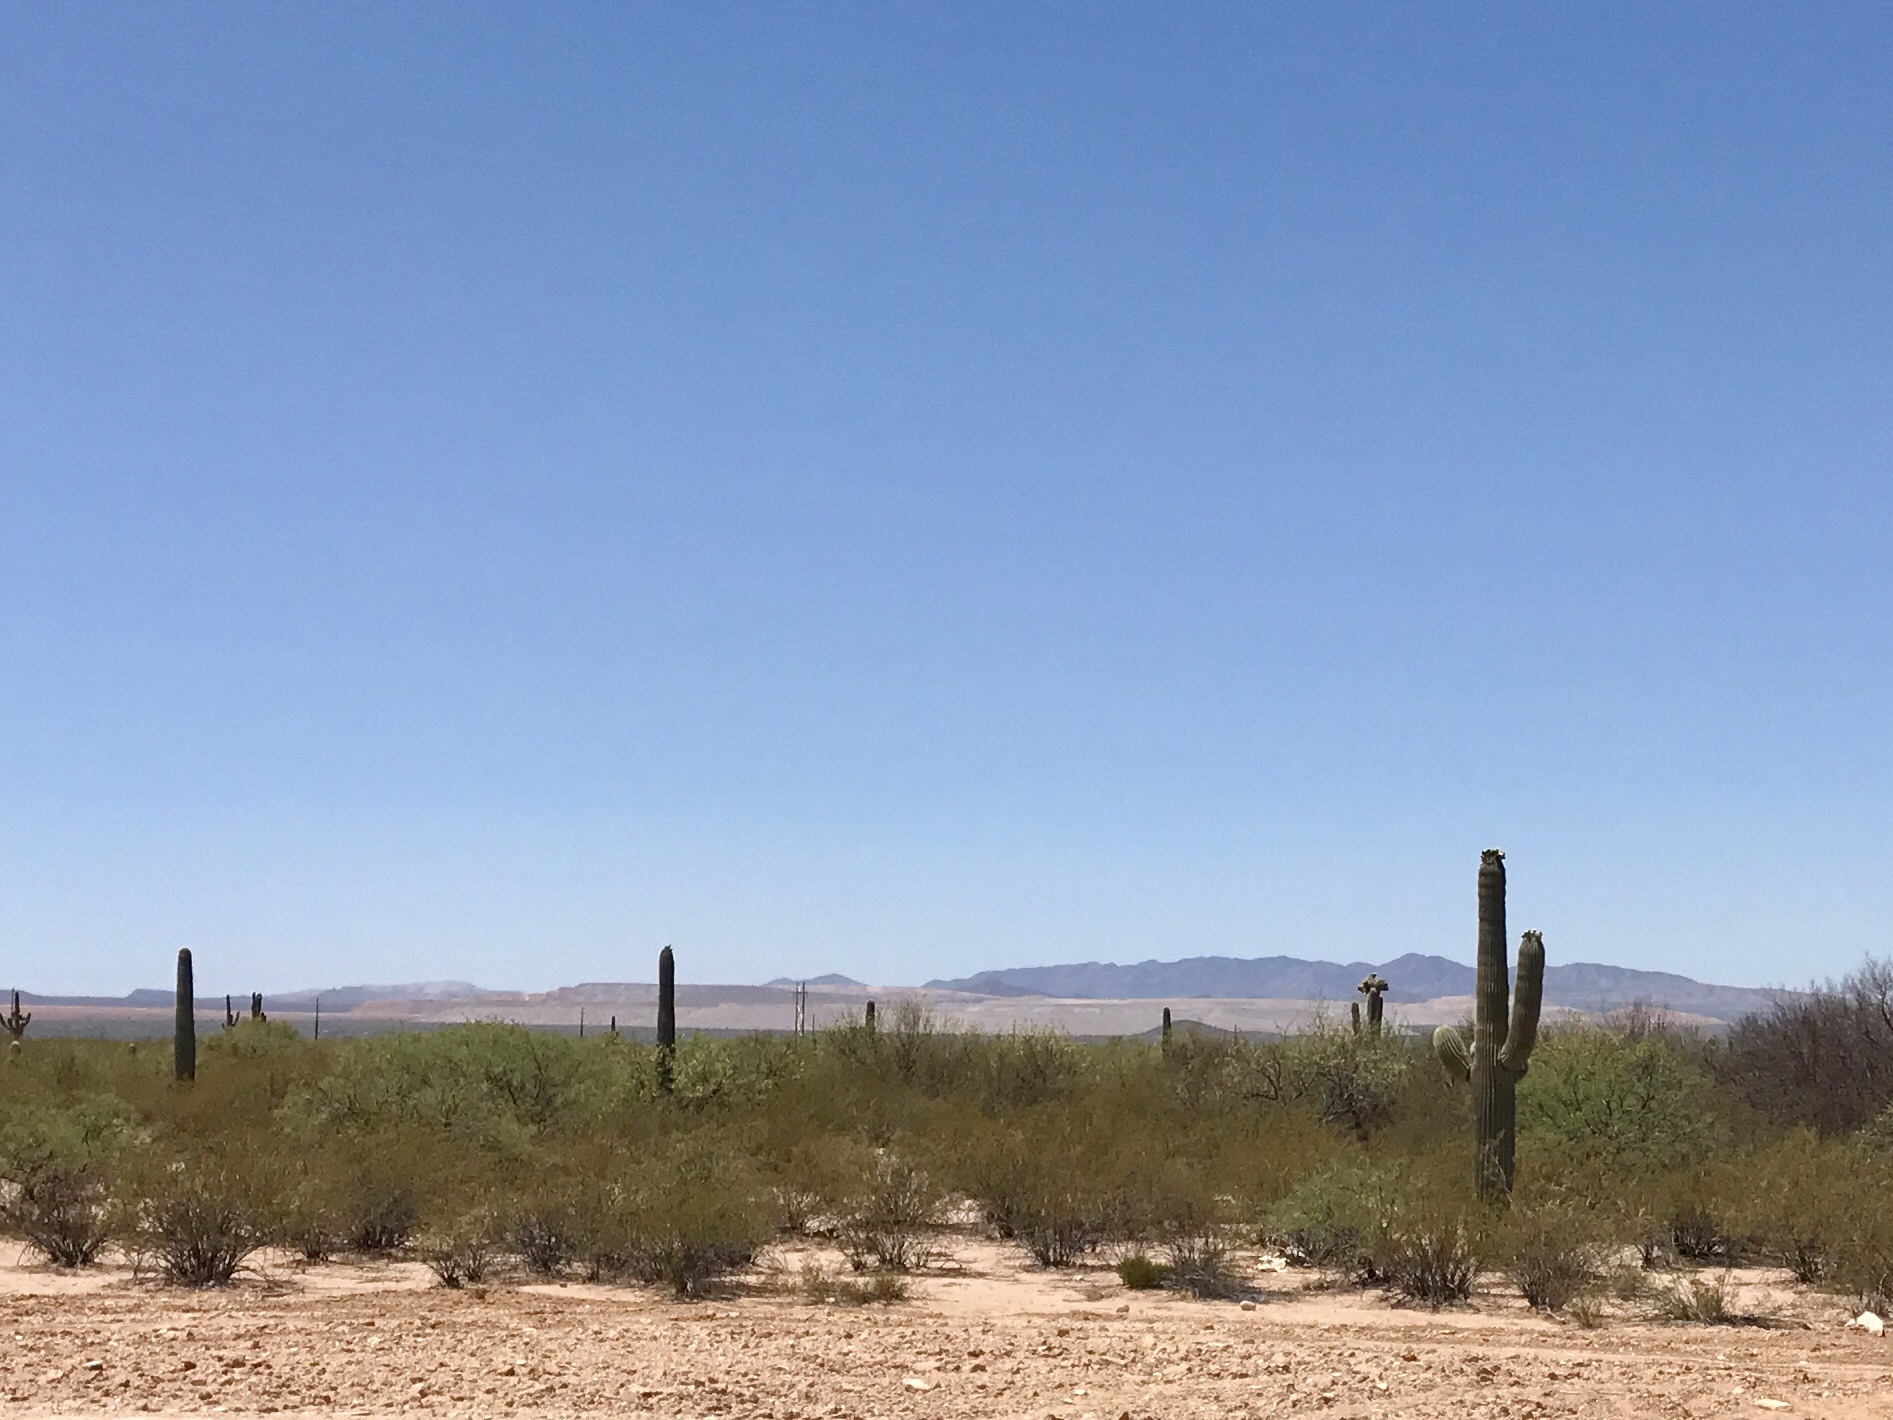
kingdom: Plantae
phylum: Tracheophyta
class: Magnoliopsida
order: Caryophyllales
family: Cactaceae
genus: Carnegiea
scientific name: Carnegiea gigantea
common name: Saguaro
